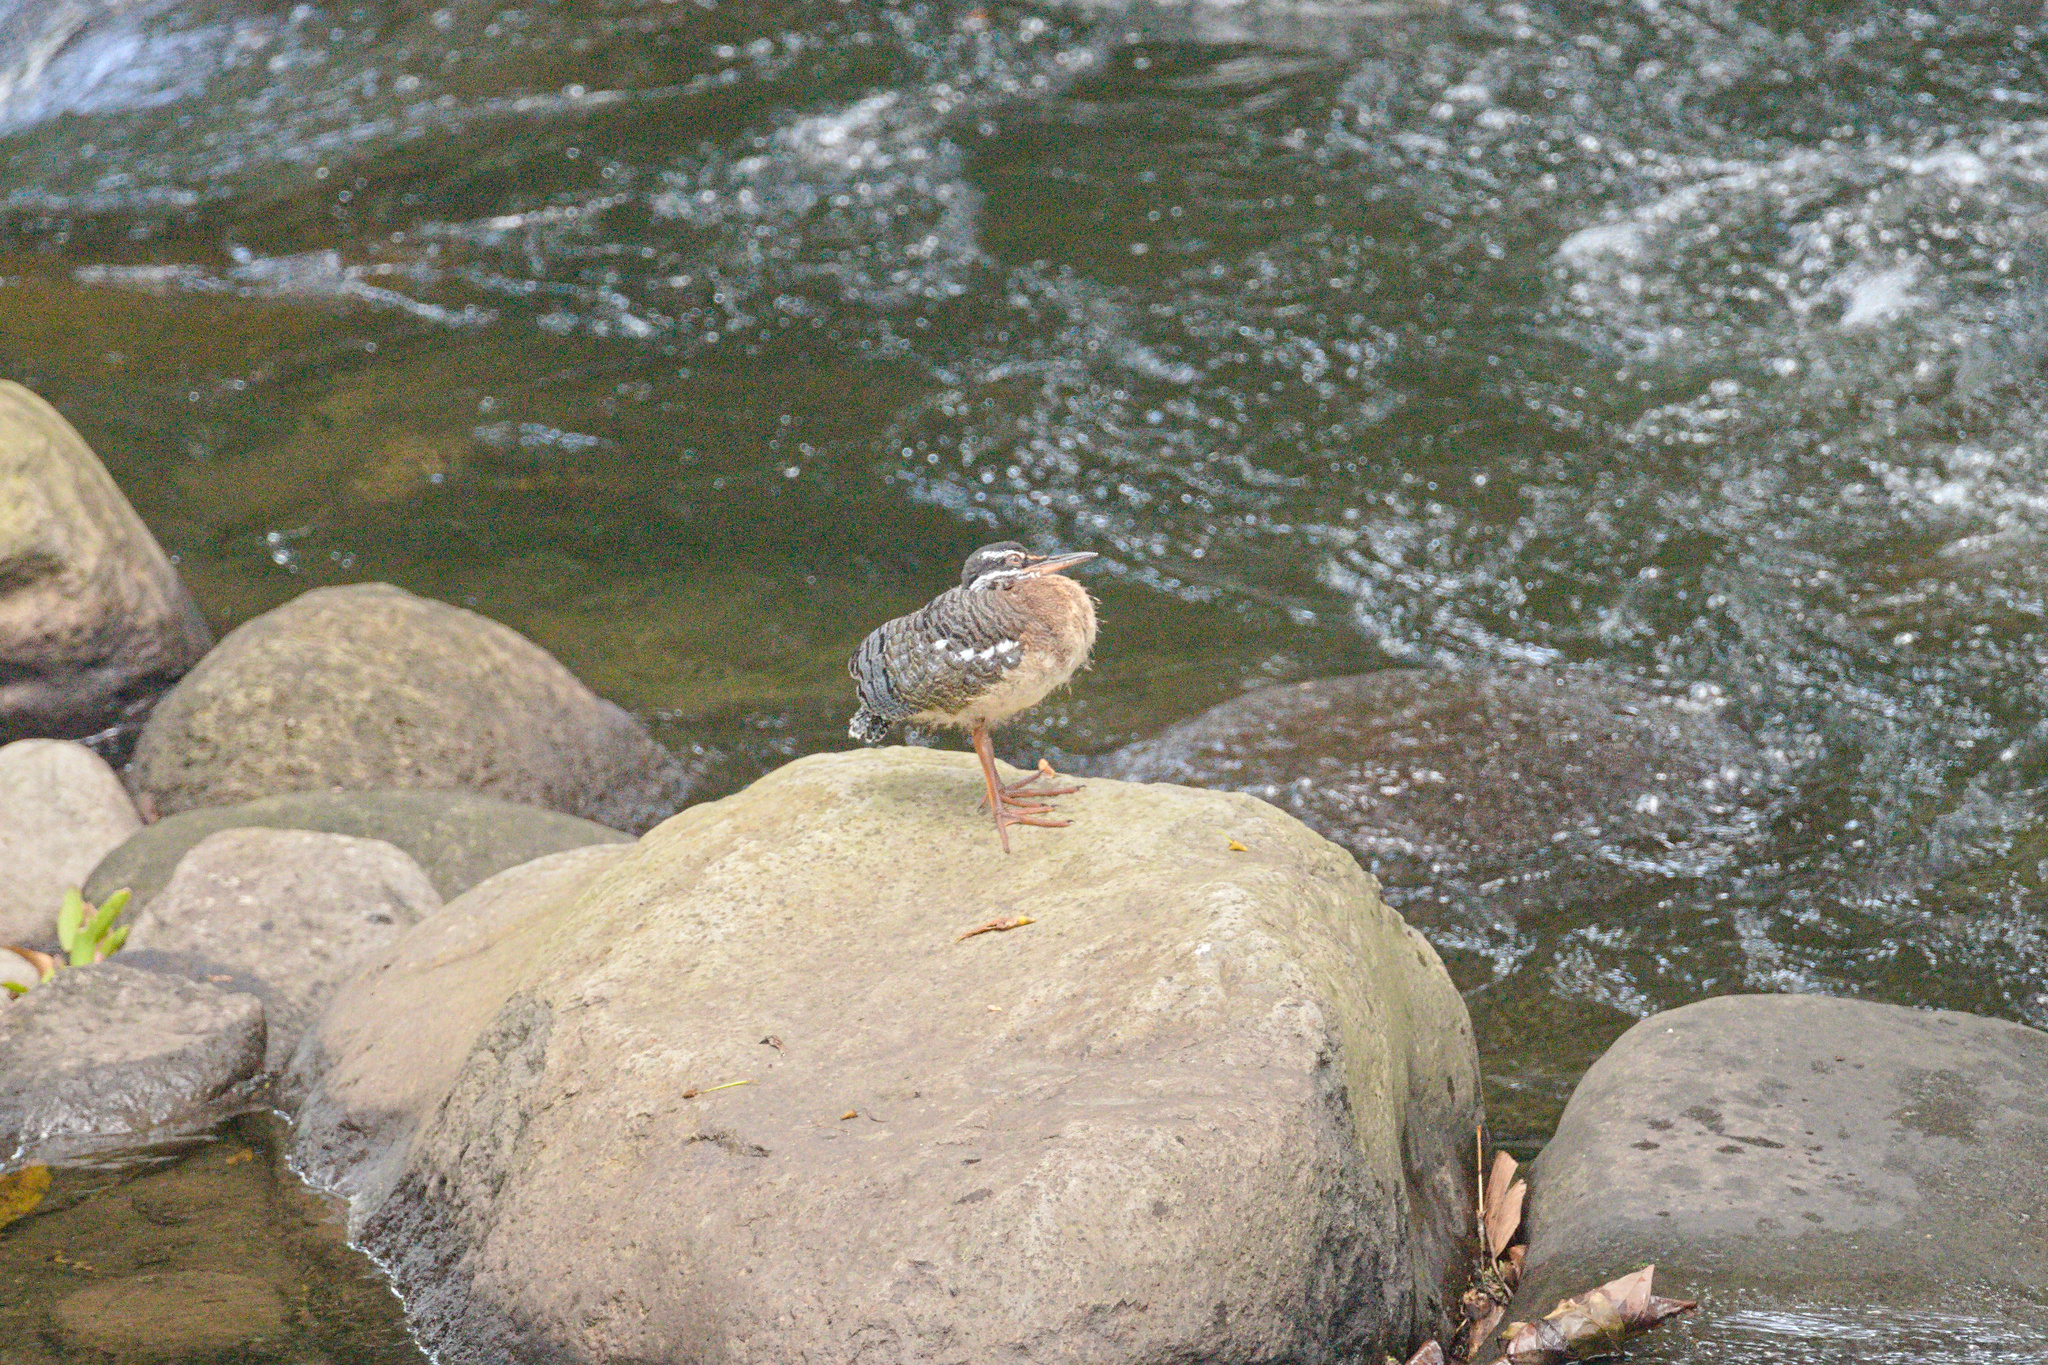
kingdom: Animalia
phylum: Chordata
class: Aves
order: Eurypygiformes
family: Eurypygidae
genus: Eurypyga
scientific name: Eurypyga helias
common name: Sunbittern
